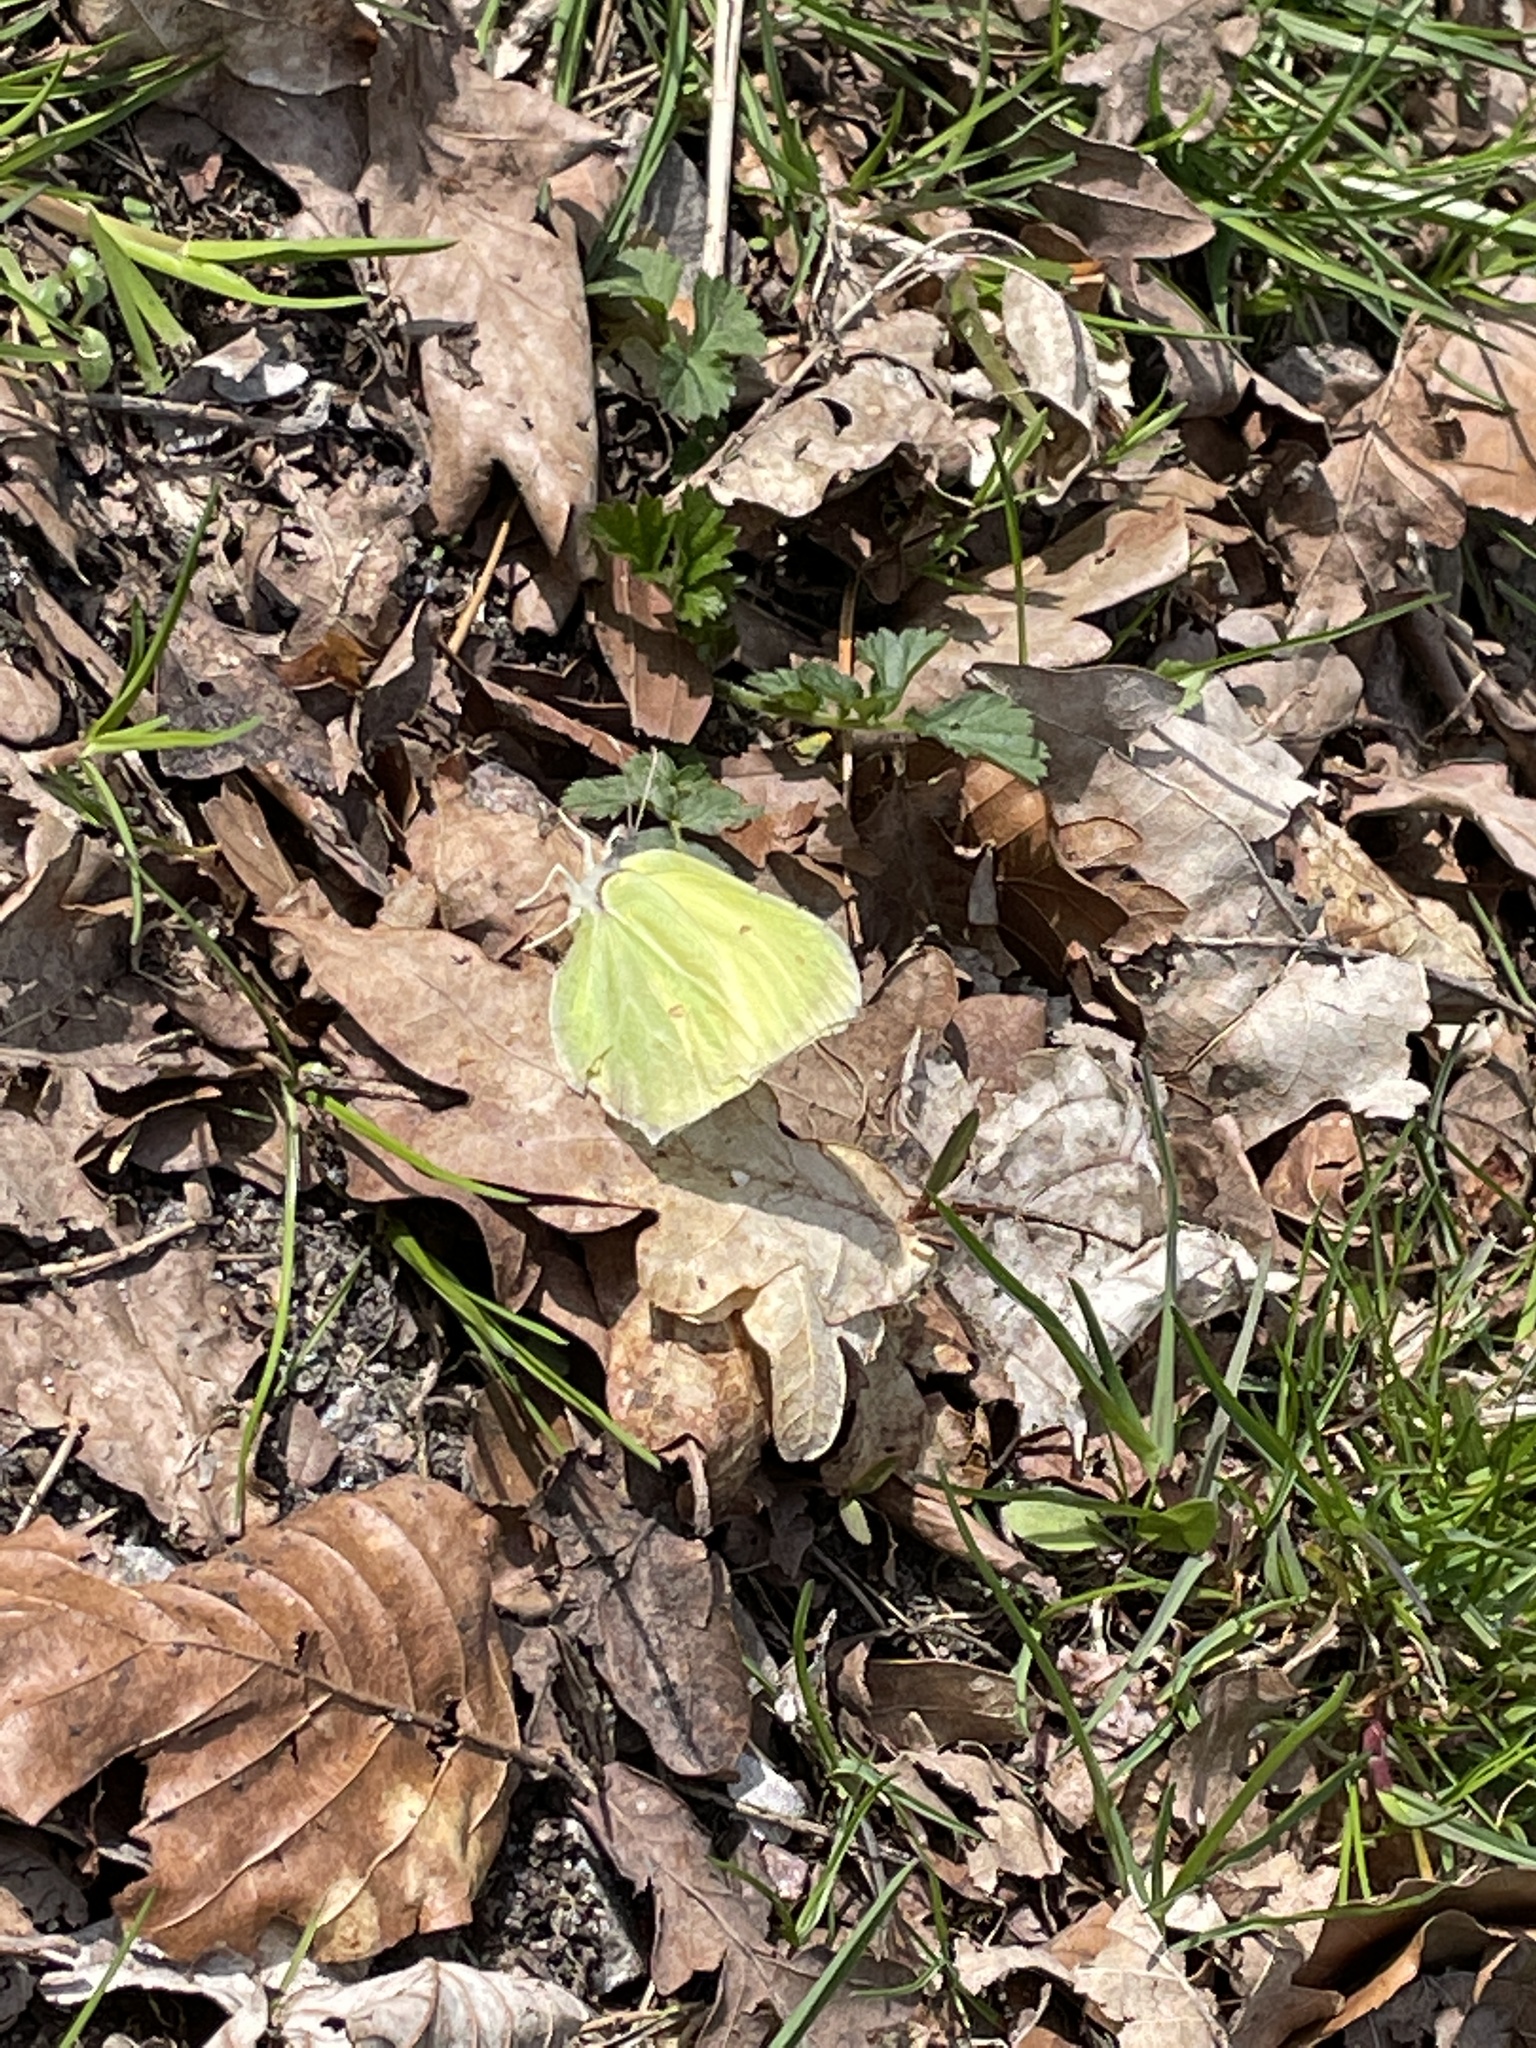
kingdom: Animalia
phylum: Arthropoda
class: Insecta
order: Lepidoptera
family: Pieridae
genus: Gonepteryx
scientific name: Gonepteryx rhamni
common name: Brimstone
